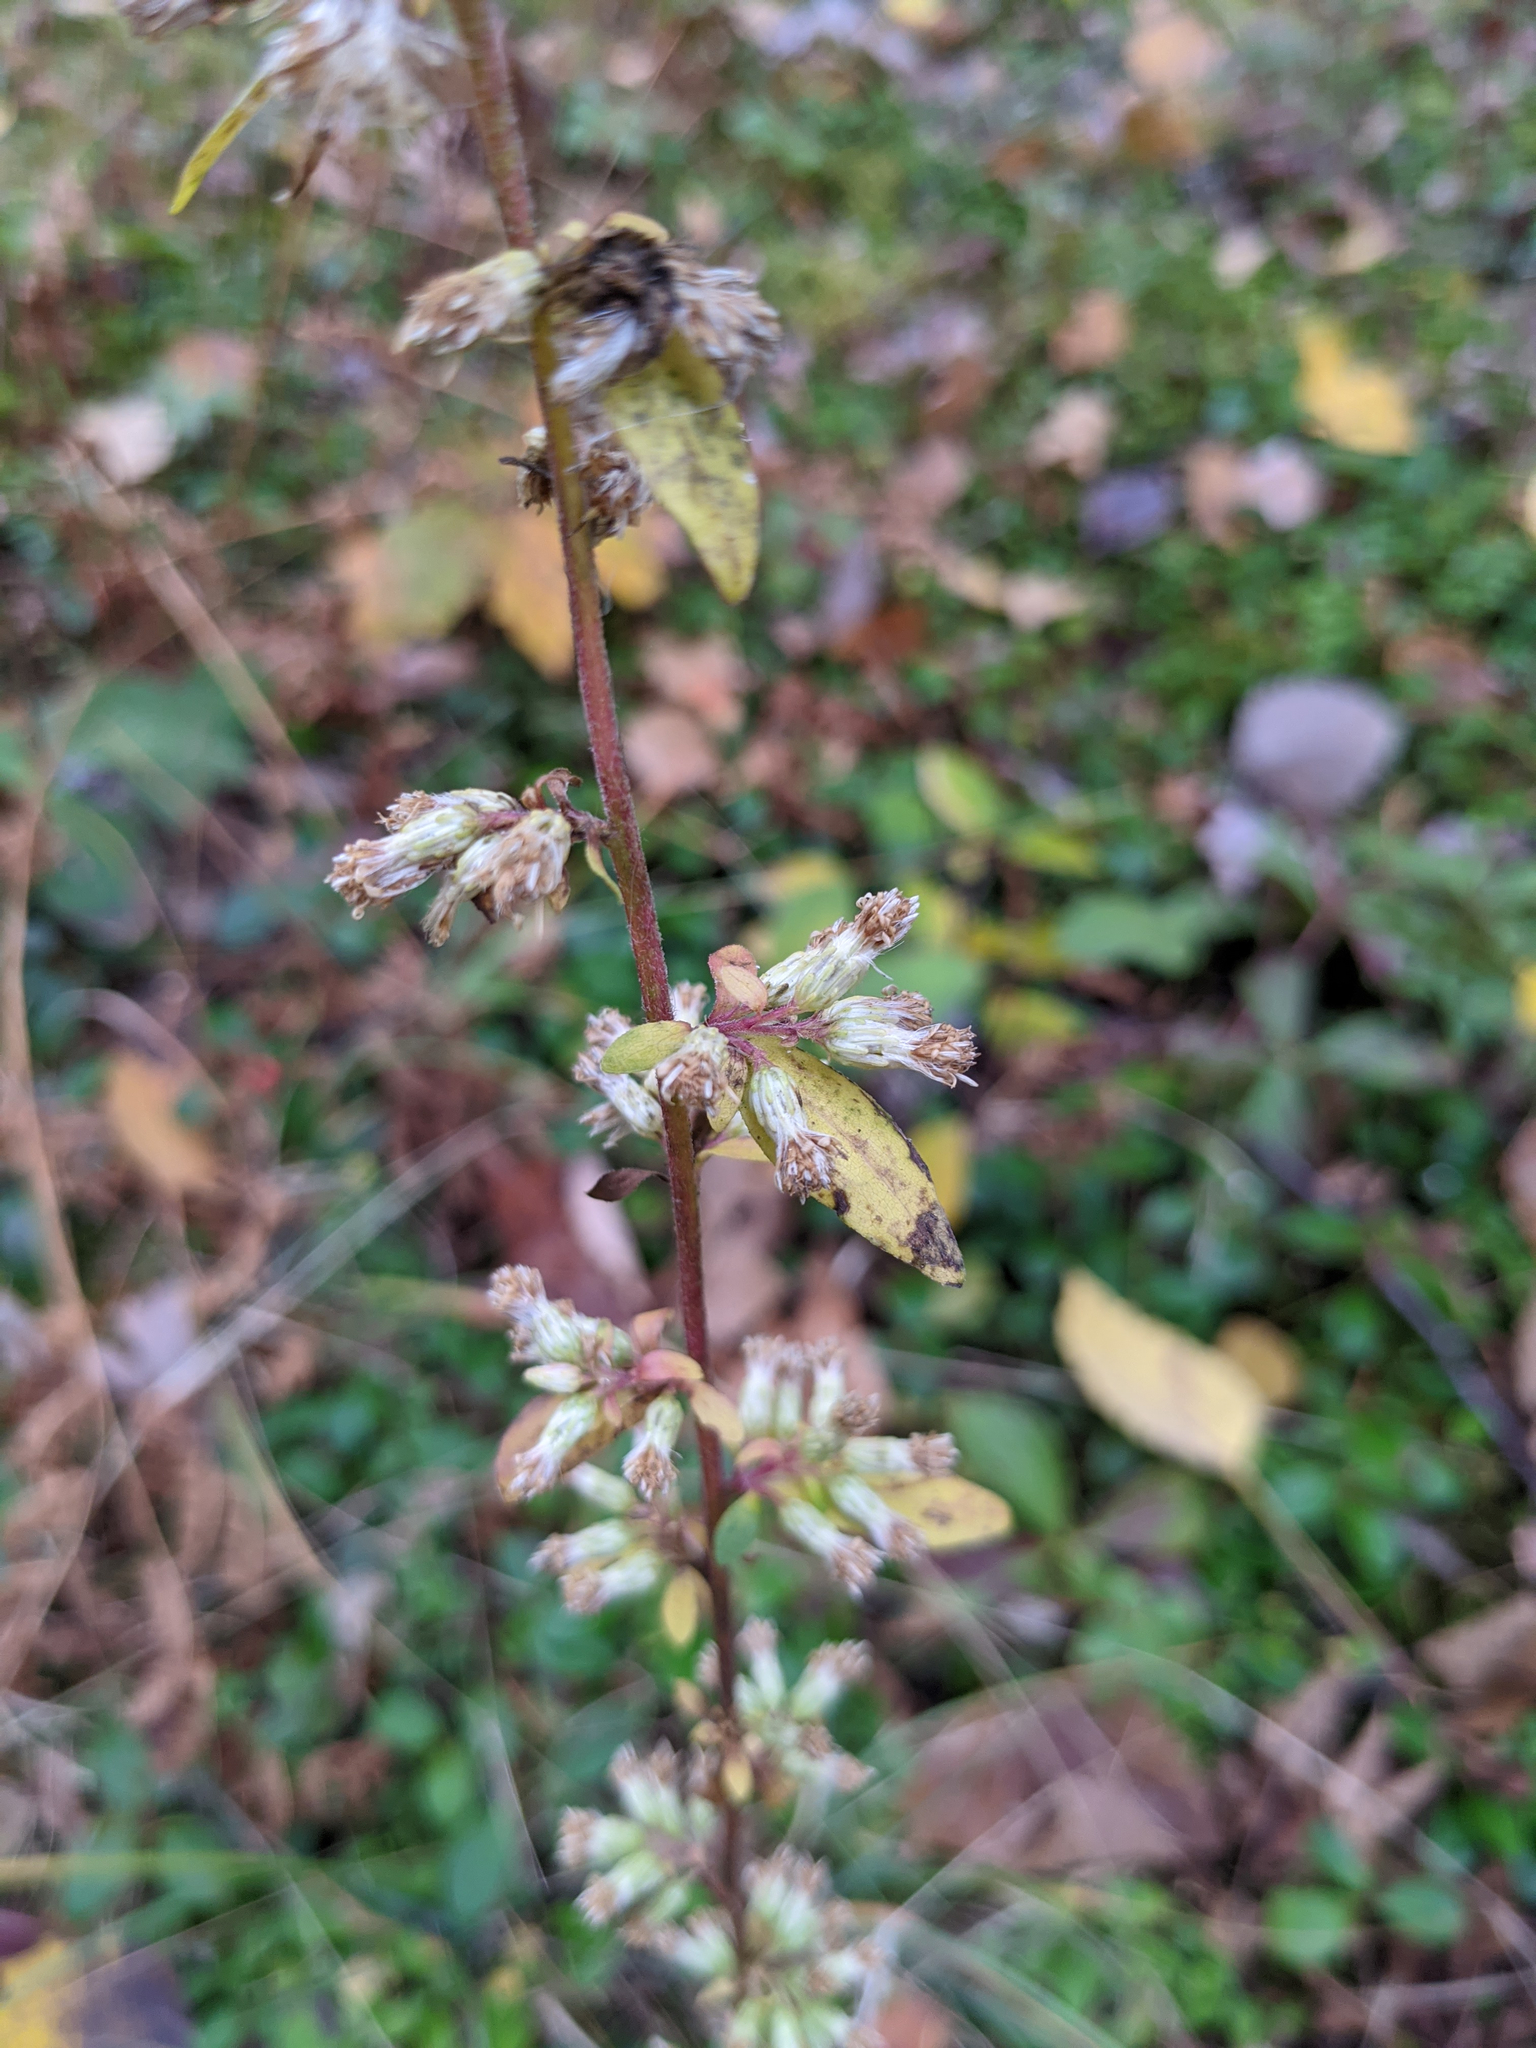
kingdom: Plantae
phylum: Tracheophyta
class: Magnoliopsida
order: Asterales
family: Asteraceae
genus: Solidago
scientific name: Solidago bicolor
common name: Silverrod
